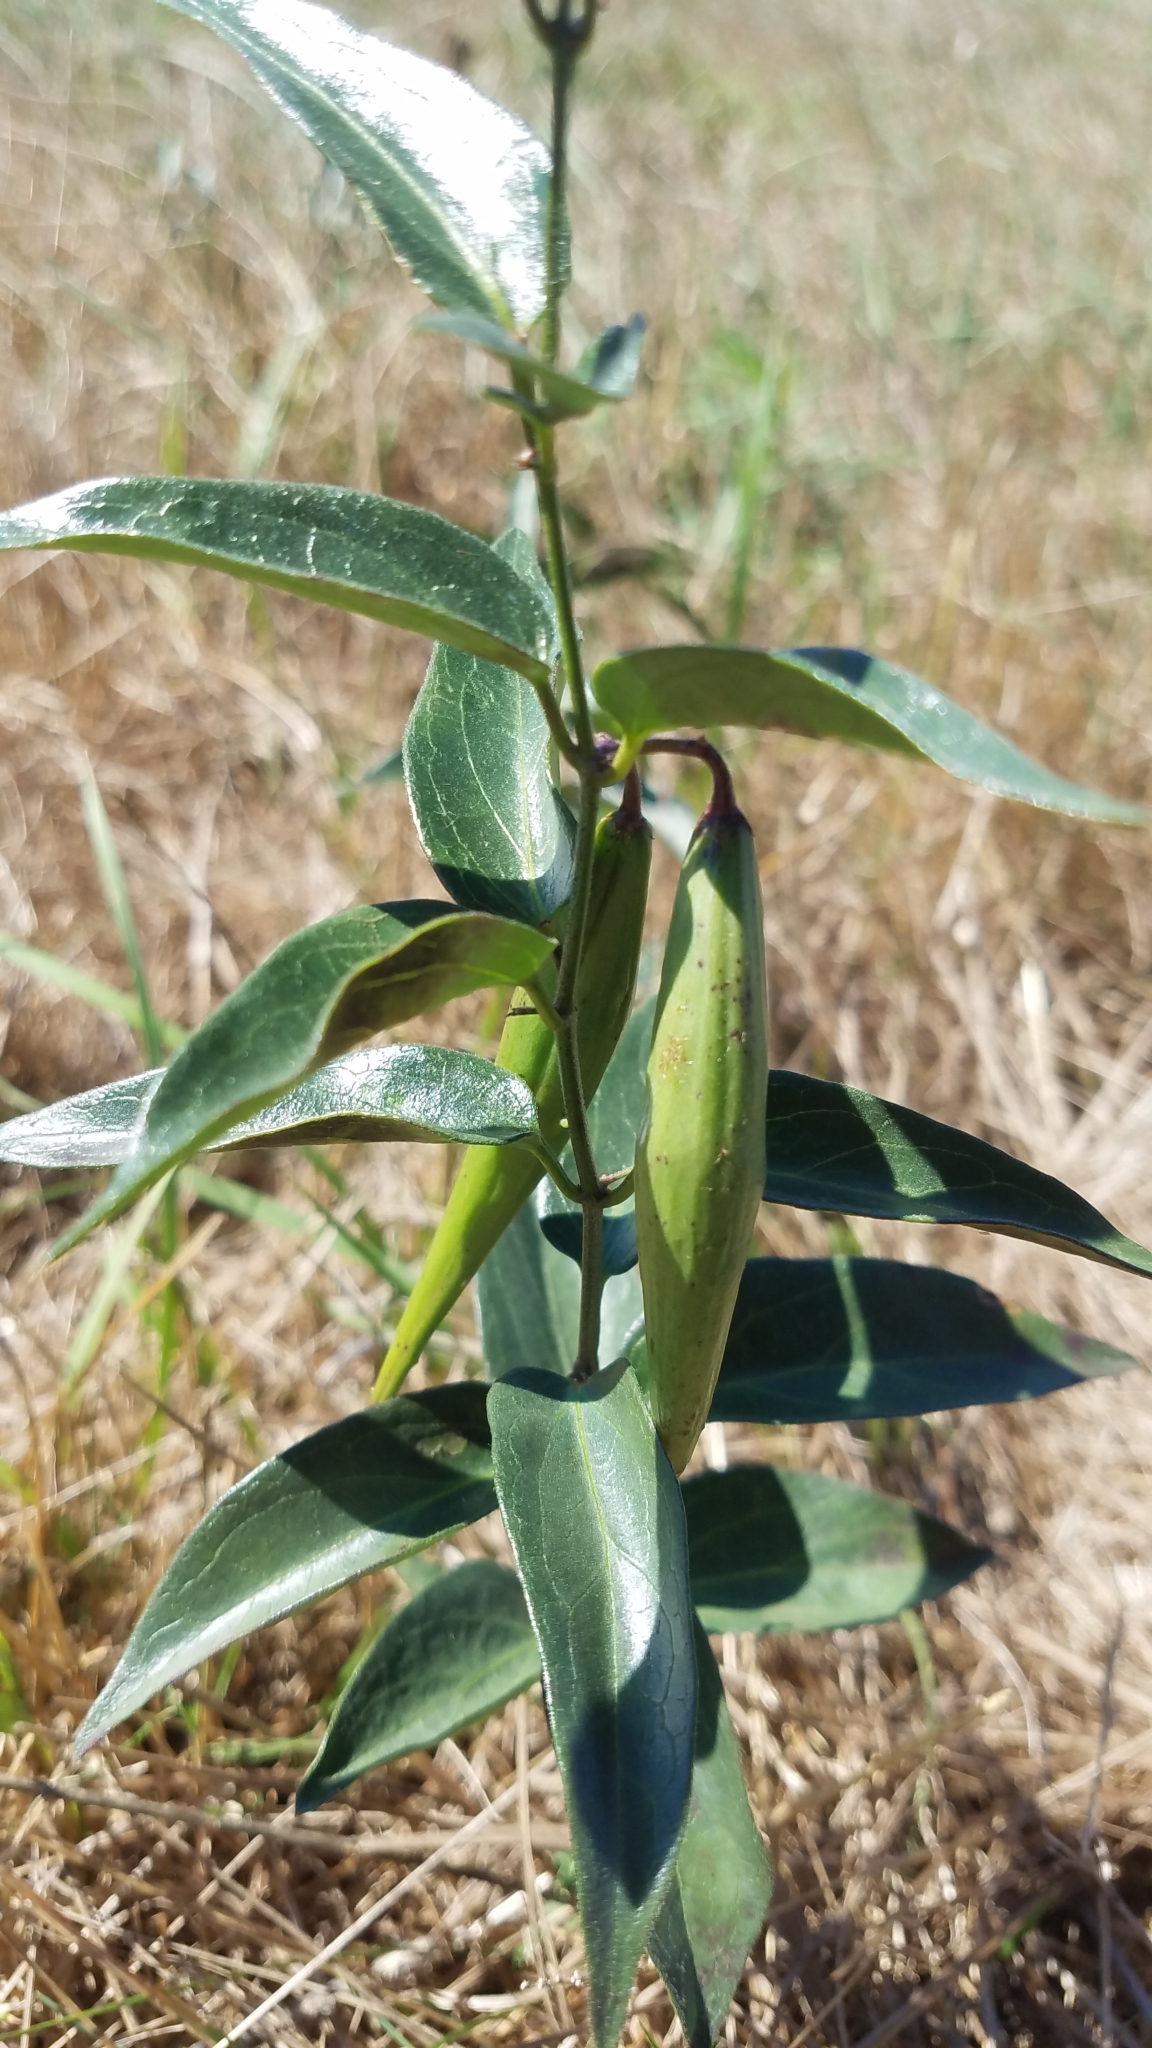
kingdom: Plantae
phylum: Tracheophyta
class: Magnoliopsida
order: Gentianales
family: Apocynaceae
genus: Vincetoxicum
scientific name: Vincetoxicum nigrum
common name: Black swallow-wort
